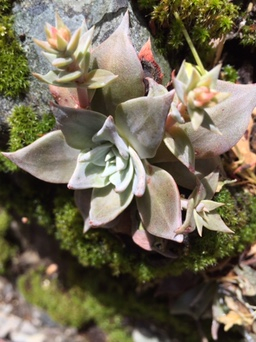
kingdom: Plantae
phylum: Tracheophyta
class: Magnoliopsida
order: Saxifragales
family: Crassulaceae
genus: Dudleya
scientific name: Dudleya cymosa
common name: Canyon dudleya
